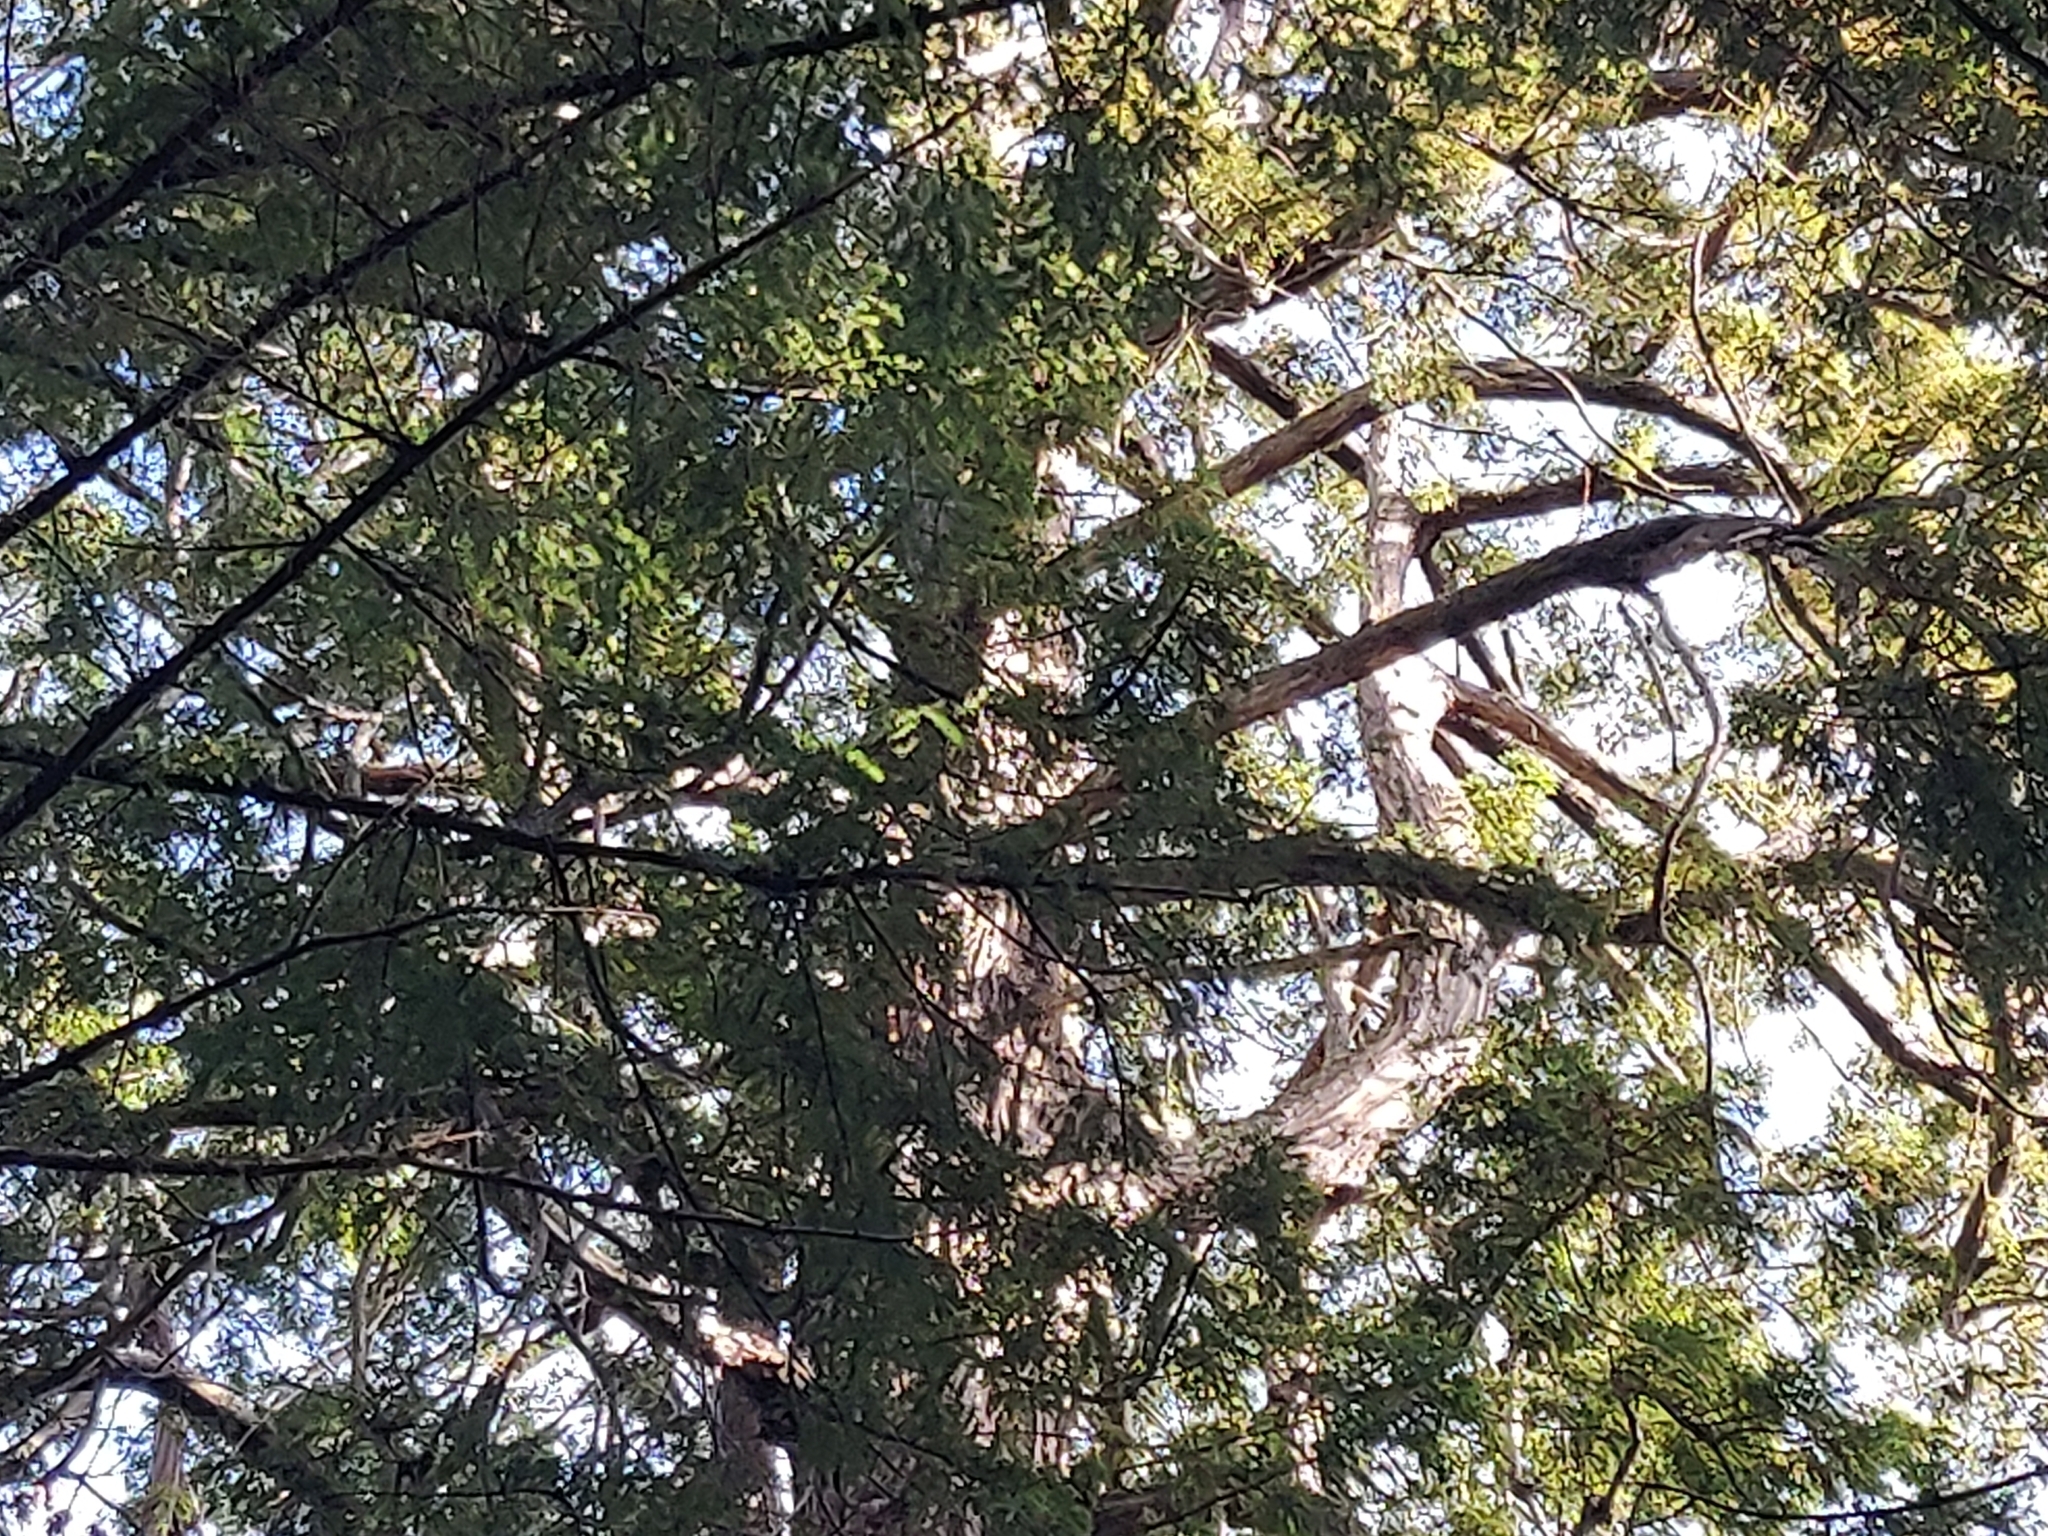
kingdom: Plantae
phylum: Tracheophyta
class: Pinopsida
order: Pinales
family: Cupressaceae
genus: Sequoia
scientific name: Sequoia sempervirens
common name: Coast redwood
